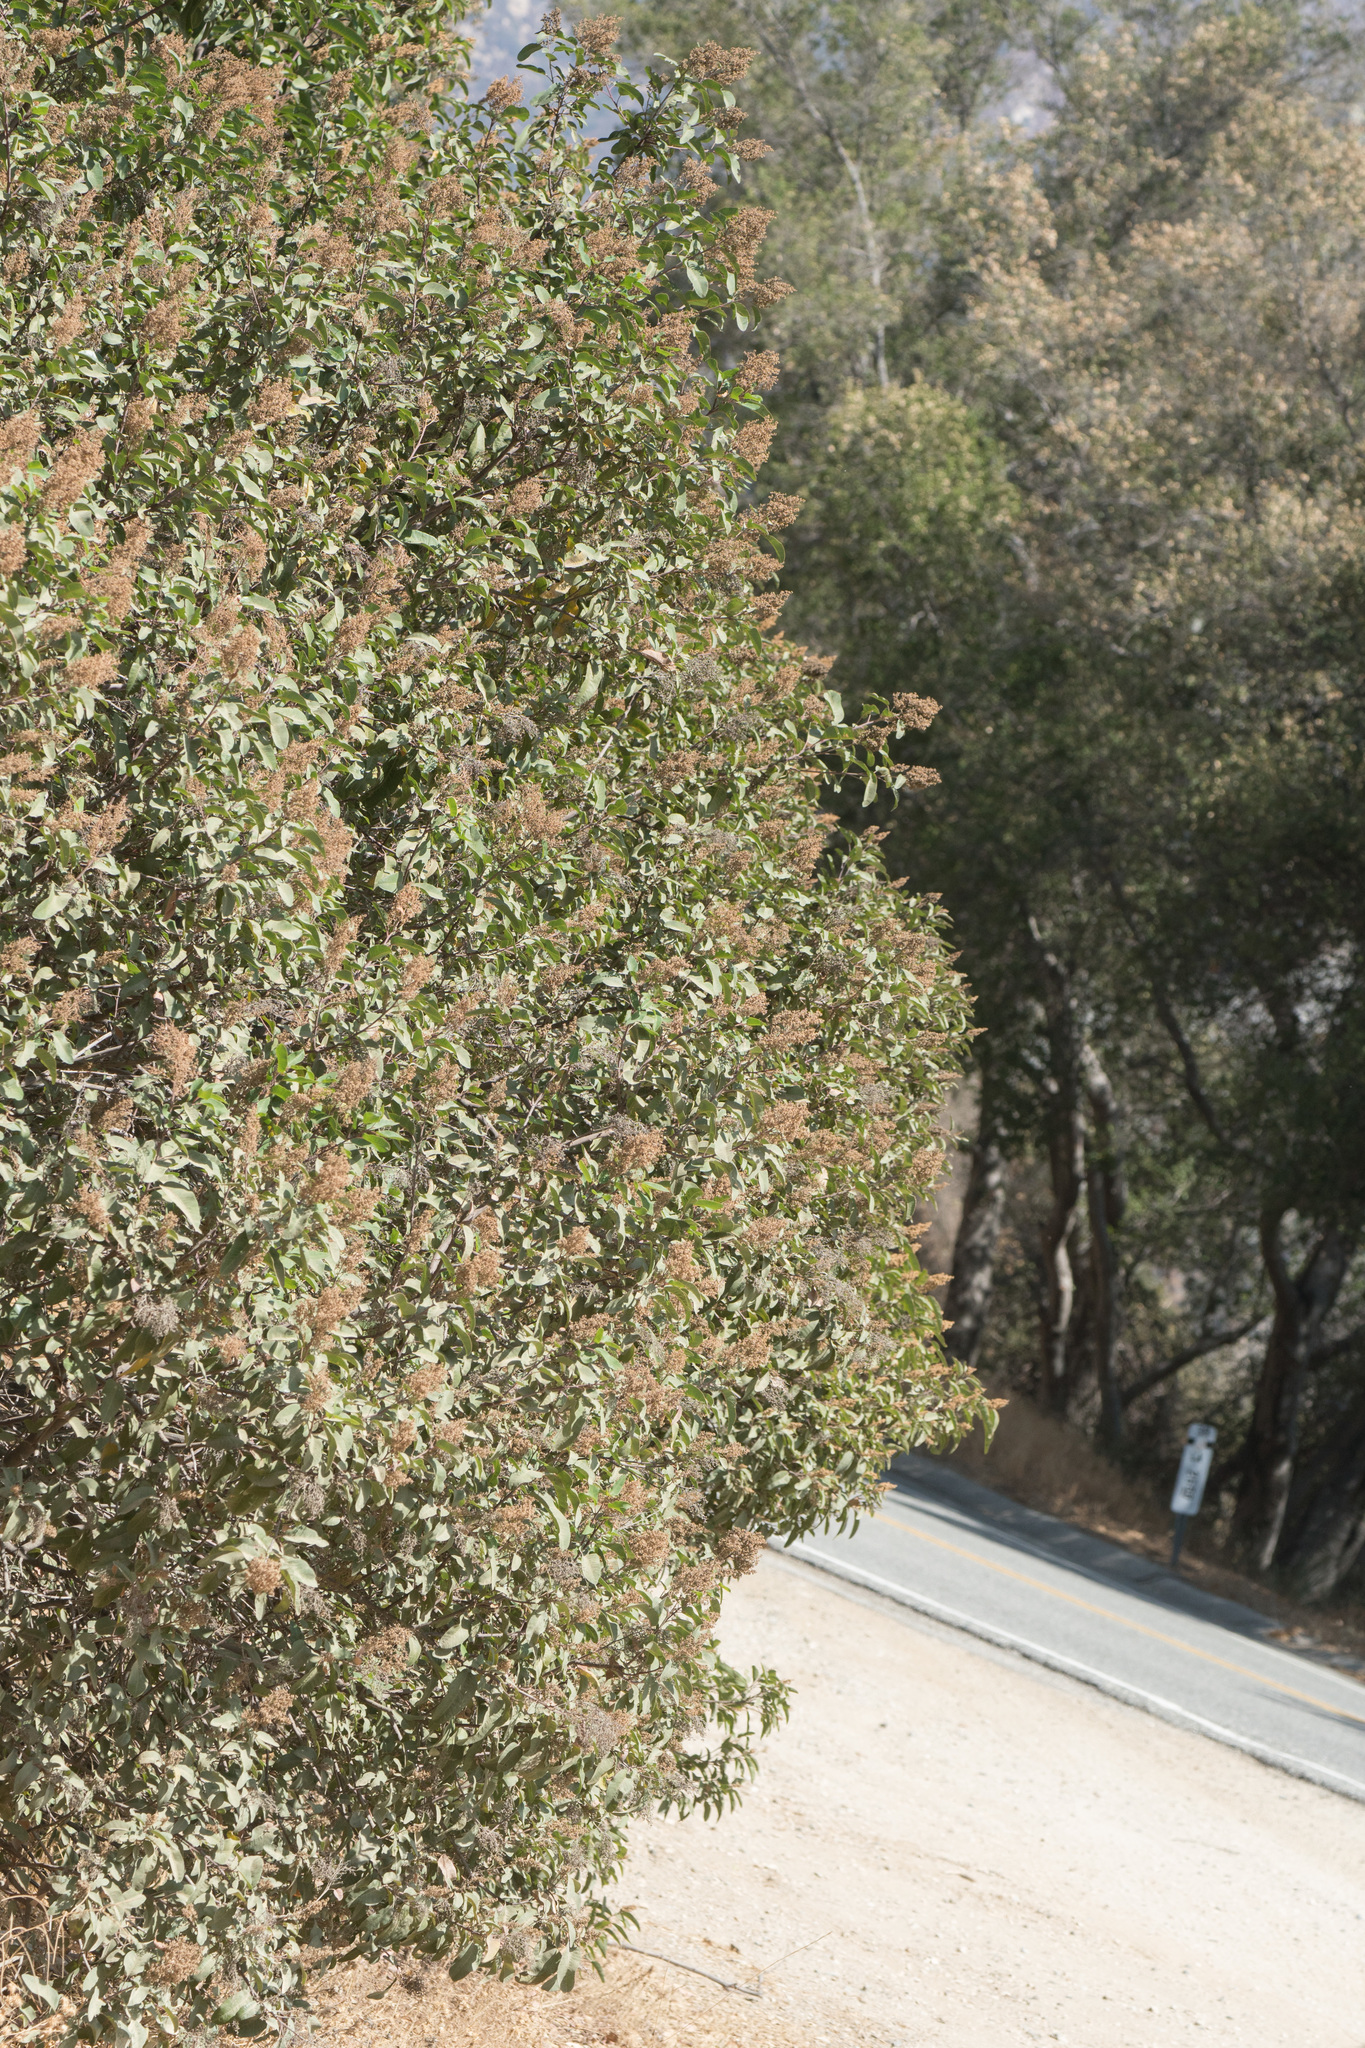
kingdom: Plantae
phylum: Tracheophyta
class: Magnoliopsida
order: Sapindales
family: Anacardiaceae
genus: Malosma
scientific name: Malosma laurina
